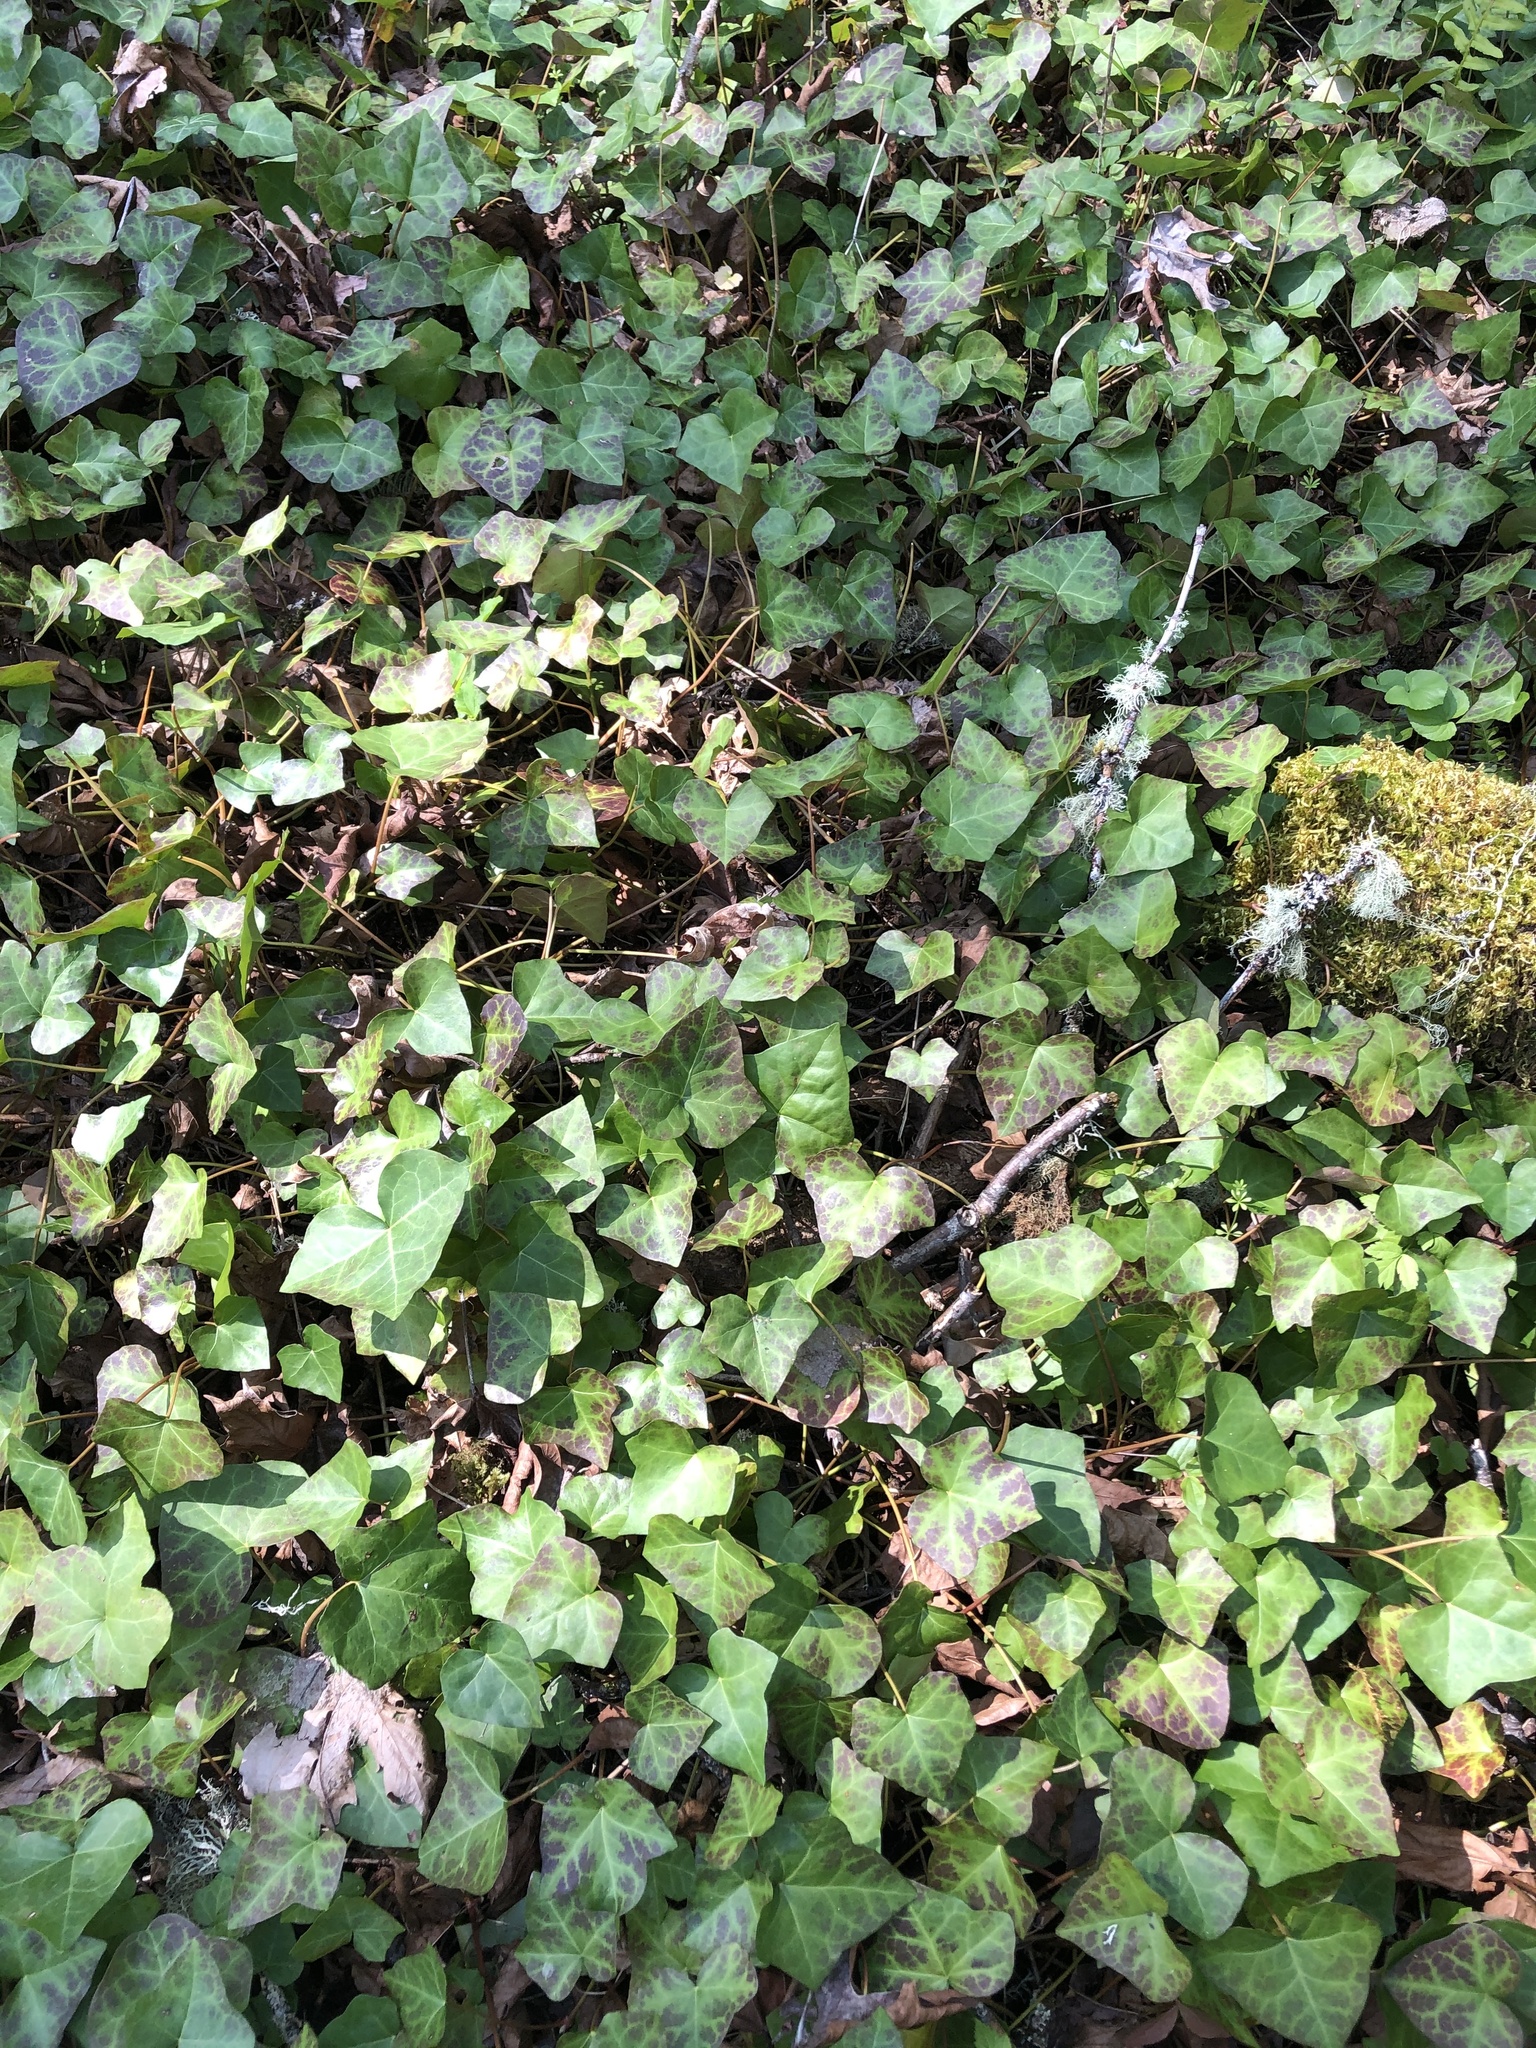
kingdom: Plantae
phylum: Tracheophyta
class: Magnoliopsida
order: Apiales
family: Araliaceae
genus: Hedera
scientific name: Hedera helix
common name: Ivy
